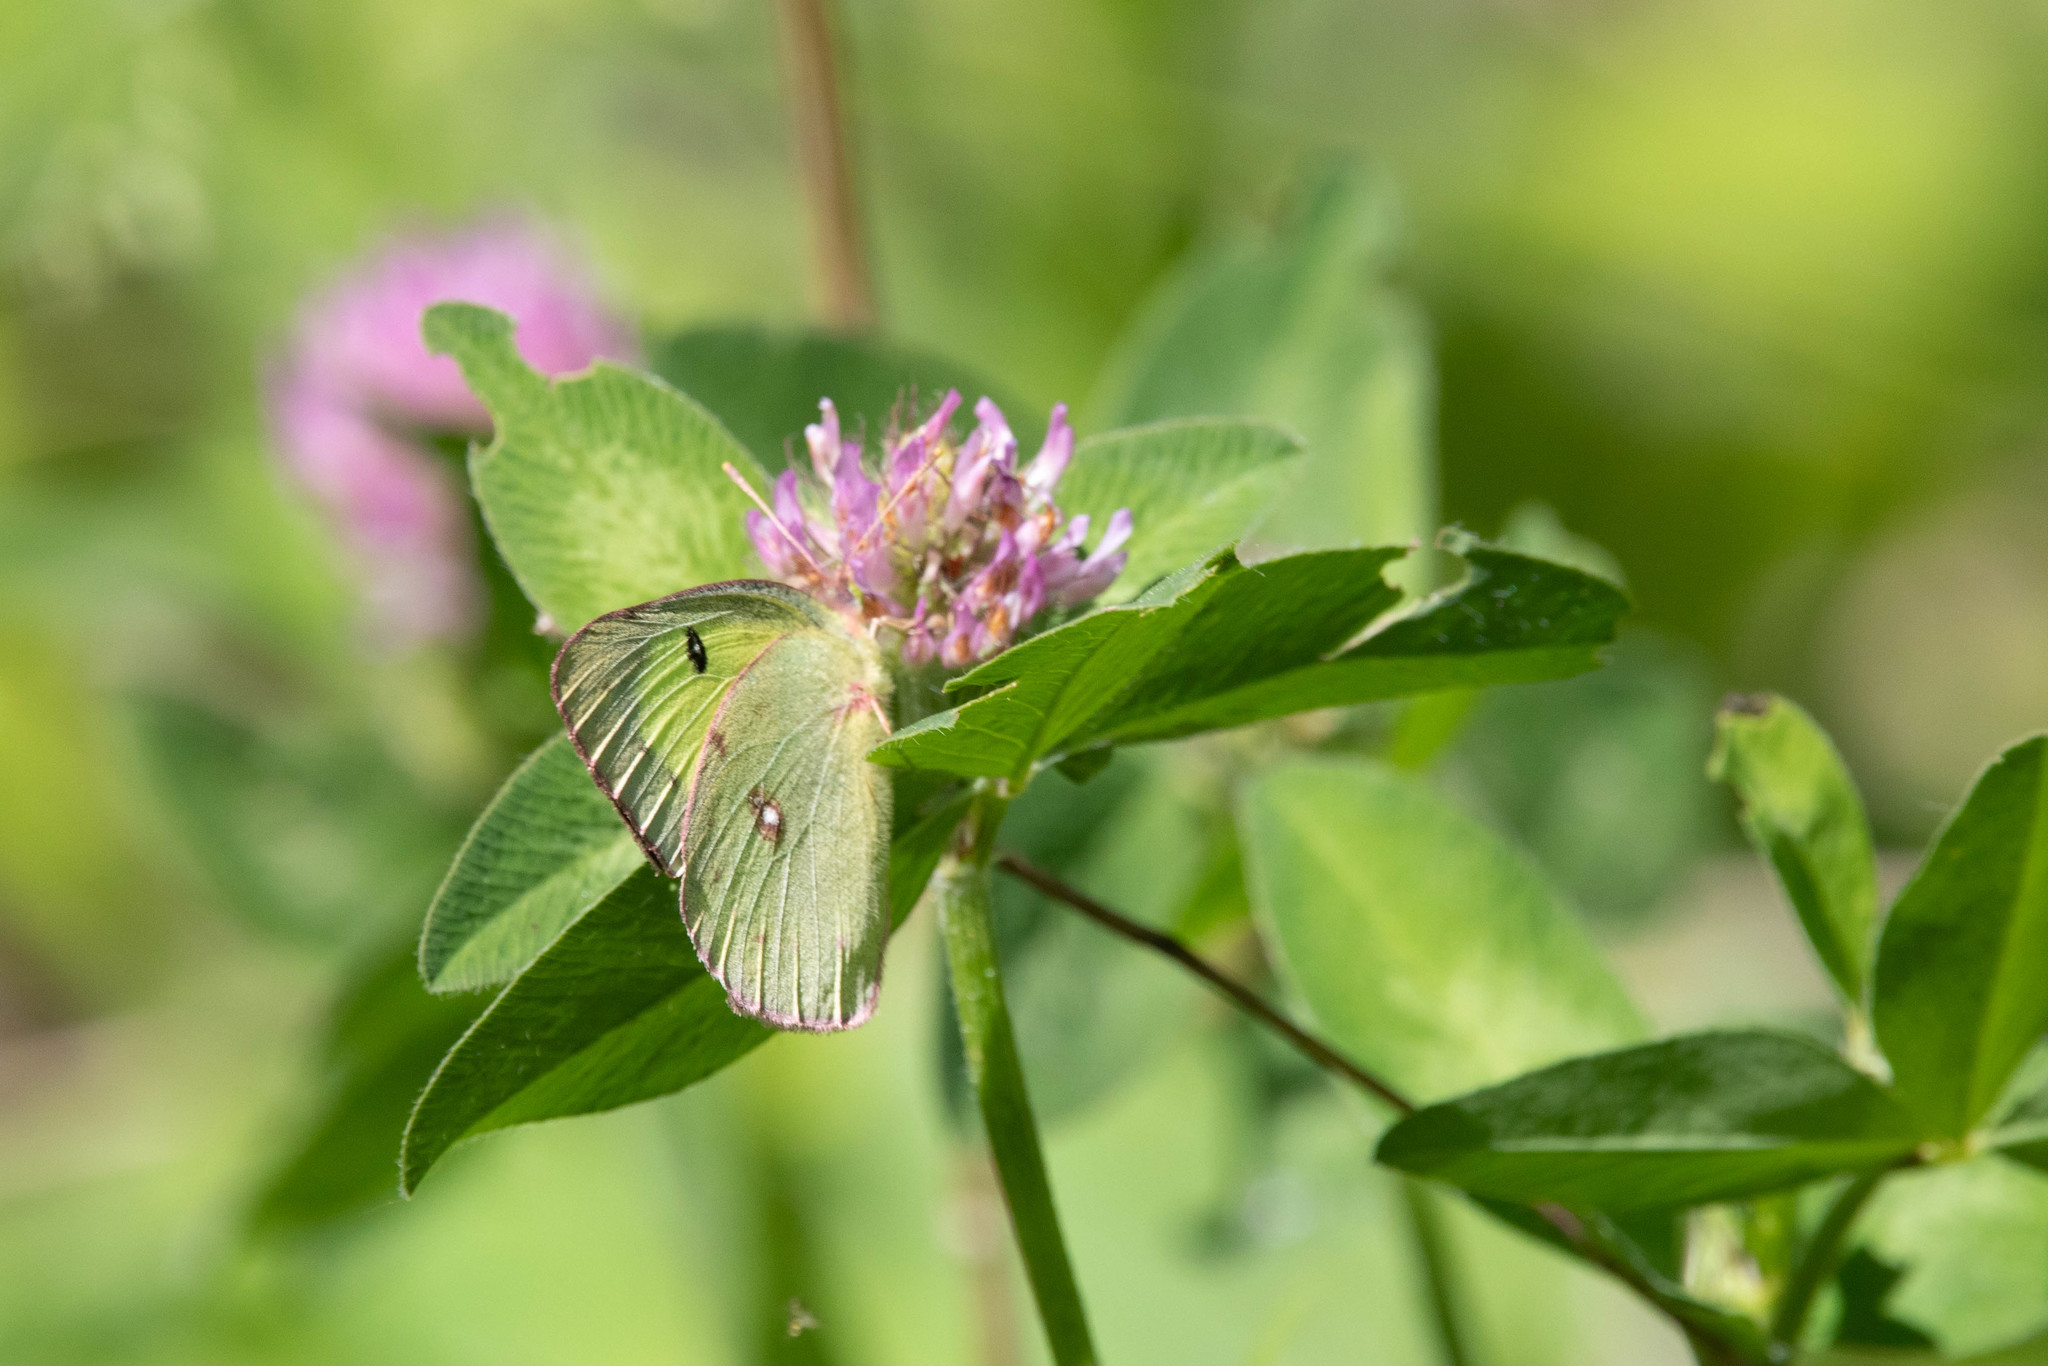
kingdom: Animalia
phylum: Arthropoda
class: Insecta
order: Lepidoptera
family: Pieridae
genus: Colias
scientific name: Colias philodice
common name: Clouded sulphur
